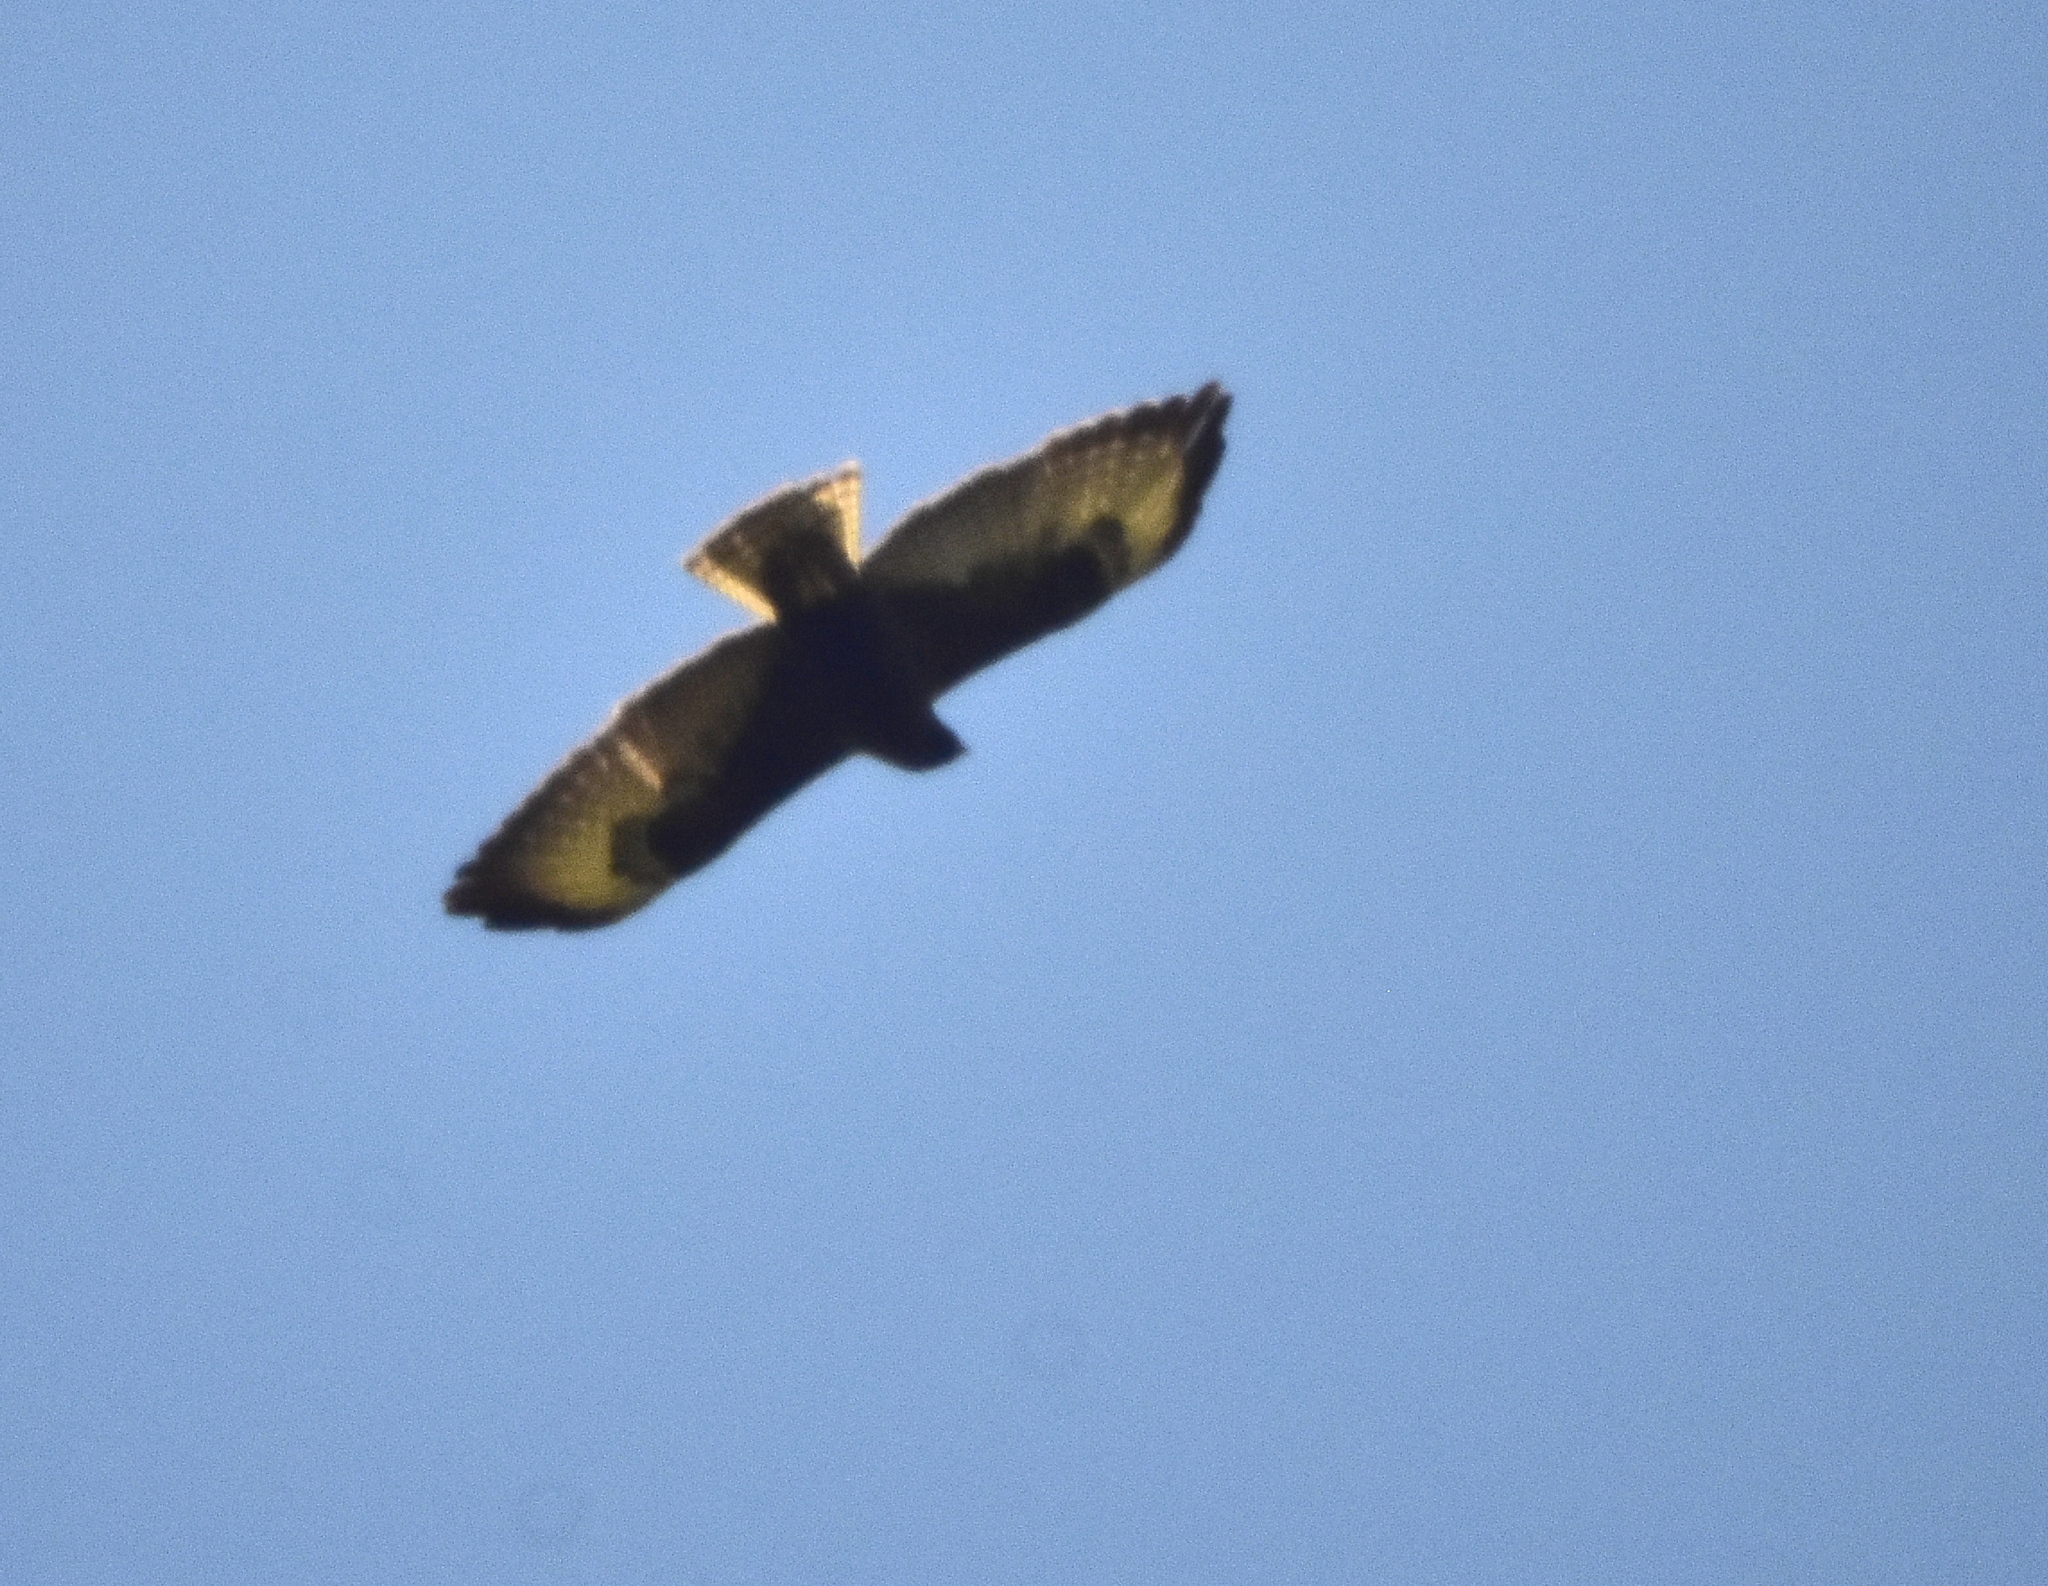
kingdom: Animalia
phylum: Chordata
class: Aves
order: Accipitriformes
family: Accipitridae
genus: Buteo
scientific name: Buteo albonotatus
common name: Zone-tailed hawk
